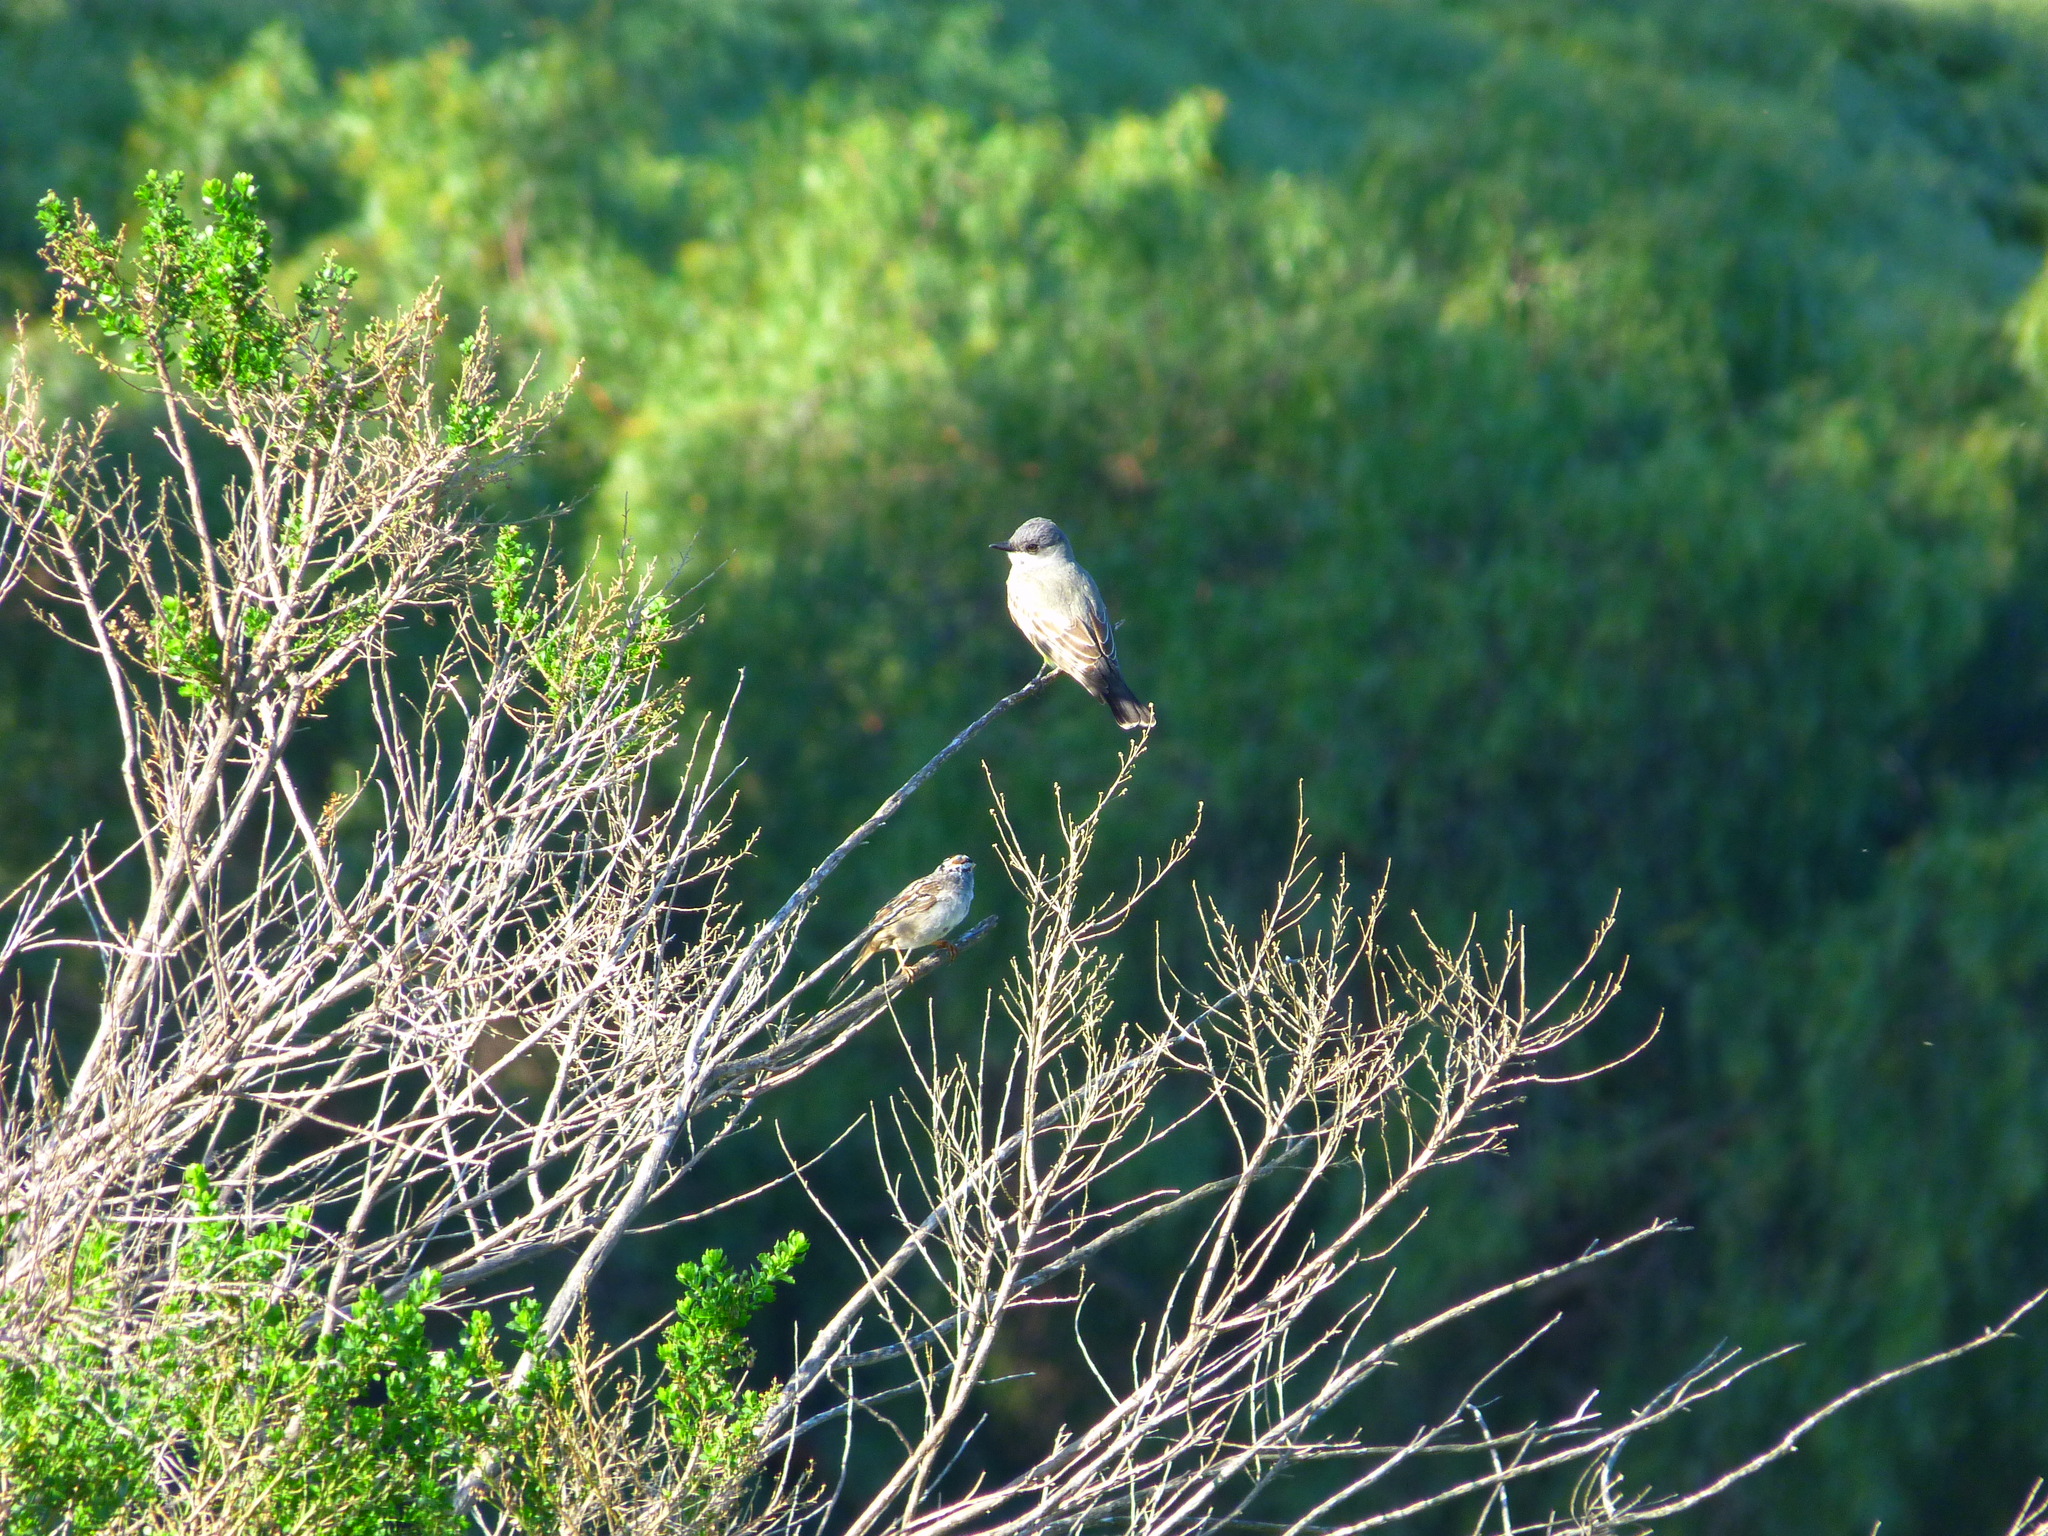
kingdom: Animalia
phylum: Chordata
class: Aves
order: Passeriformes
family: Tyrannidae
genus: Tyrannus
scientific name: Tyrannus vociferans
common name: Cassin's kingbird
